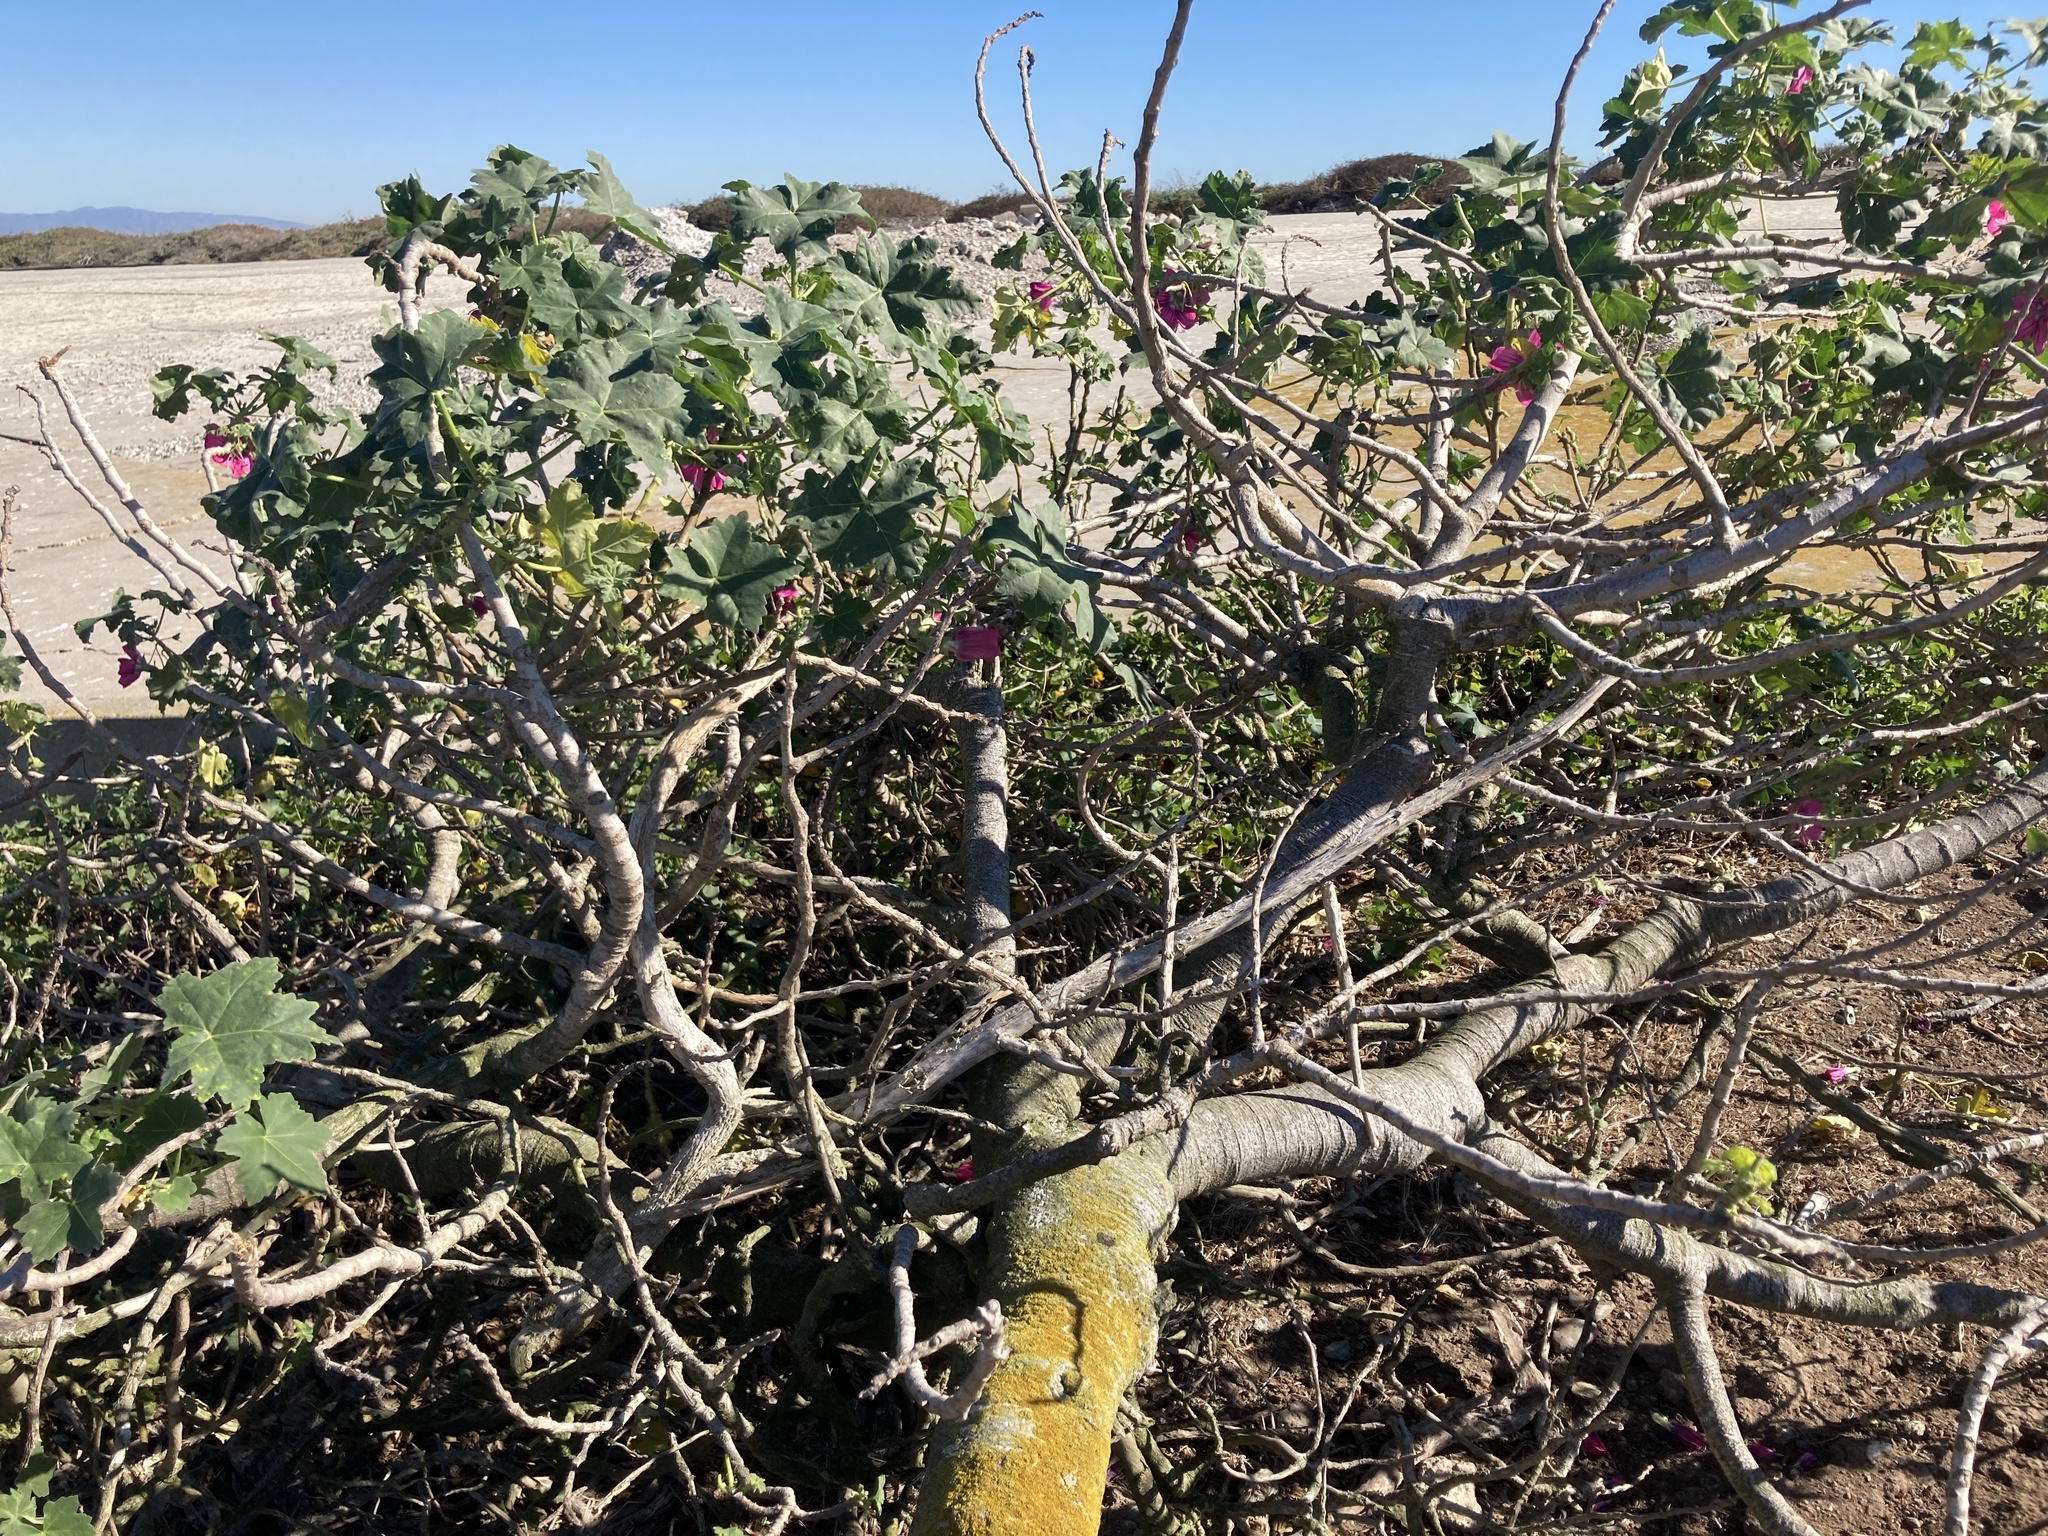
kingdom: Plantae
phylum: Tracheophyta
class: Magnoliopsida
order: Malvales
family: Malvaceae
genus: Malva
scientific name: Malva assurgentiflora
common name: Island mallow
